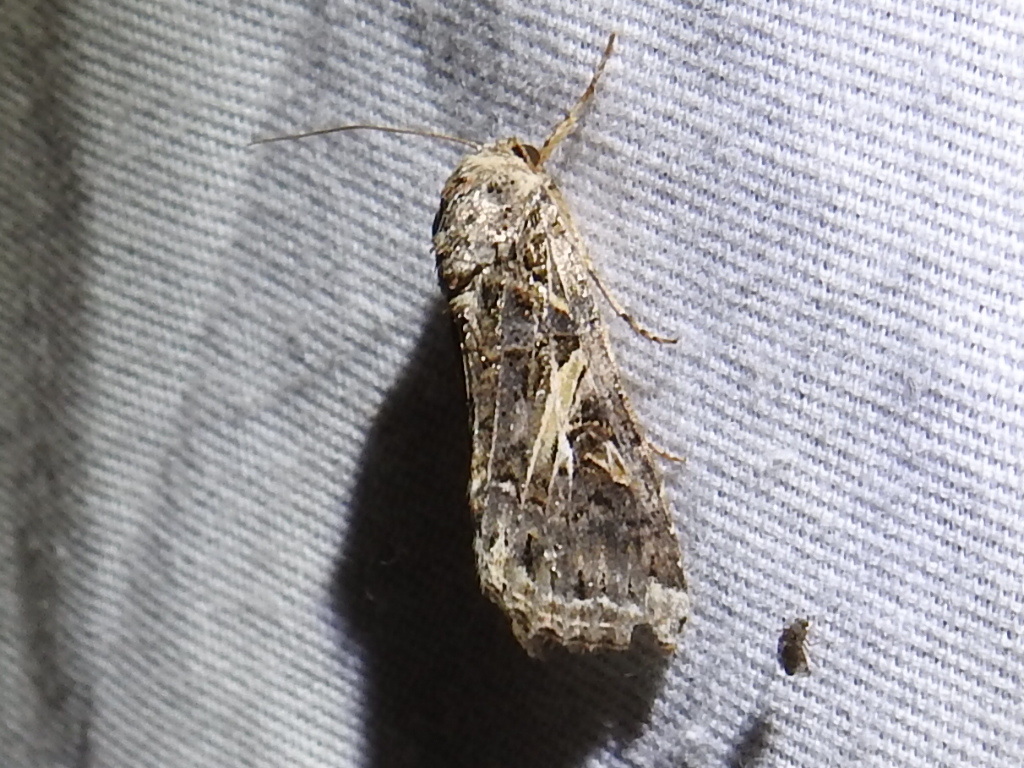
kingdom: Animalia
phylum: Arthropoda
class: Insecta
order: Lepidoptera
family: Noctuidae
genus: Spodoptera
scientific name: Spodoptera ornithogalli
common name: Yellow-striped armyworm
